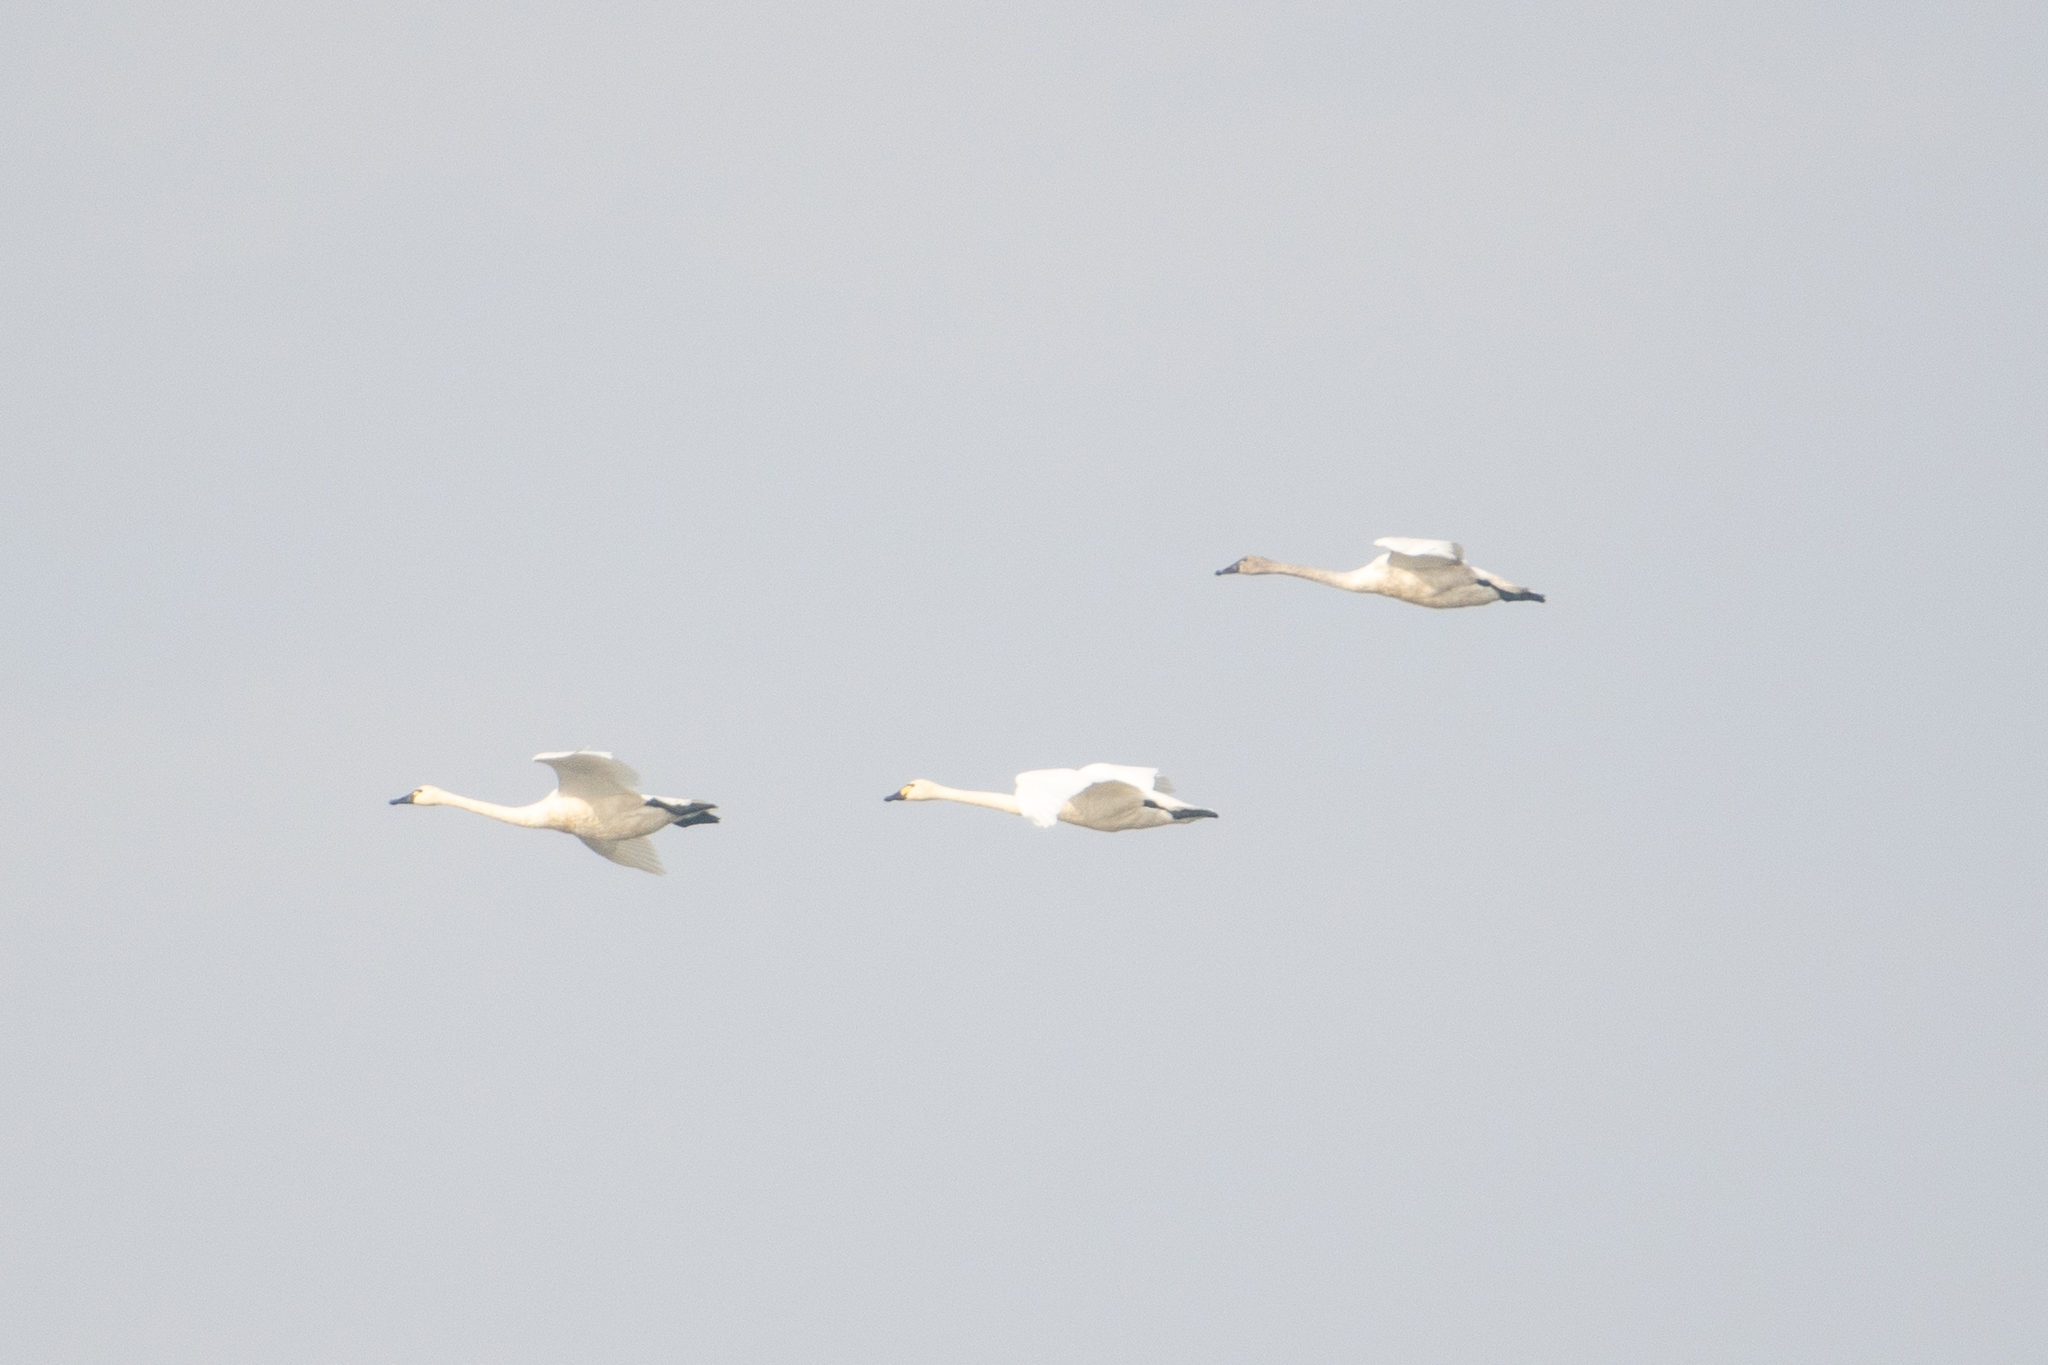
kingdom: Animalia
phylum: Chordata
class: Aves
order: Anseriformes
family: Anatidae
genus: Cygnus
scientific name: Cygnus columbianus
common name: Tundra swan
